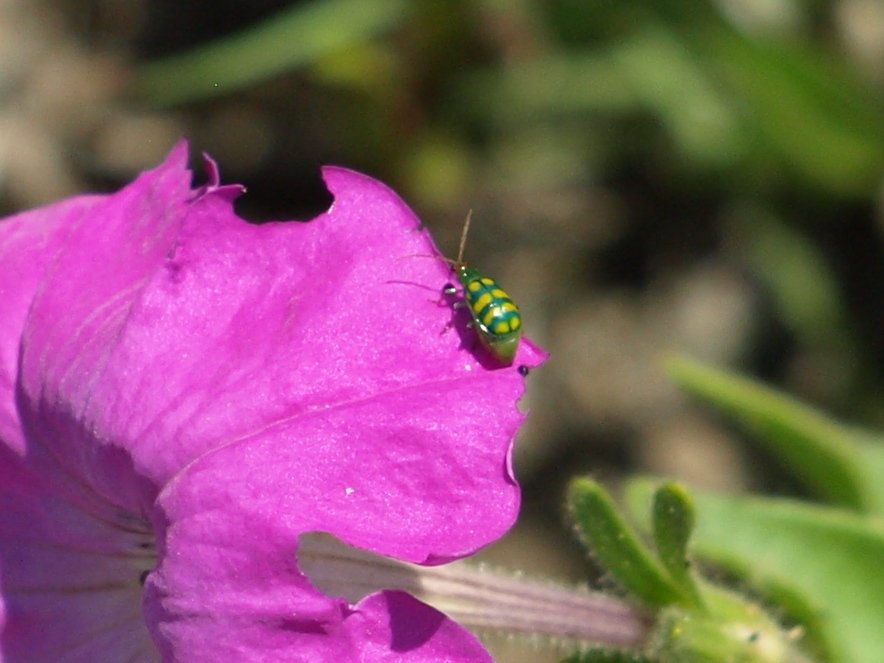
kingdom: Animalia
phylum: Arthropoda
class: Insecta
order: Coleoptera
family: Chrysomelidae
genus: Diabrotica
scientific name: Diabrotica balteata
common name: Leaf beetle
